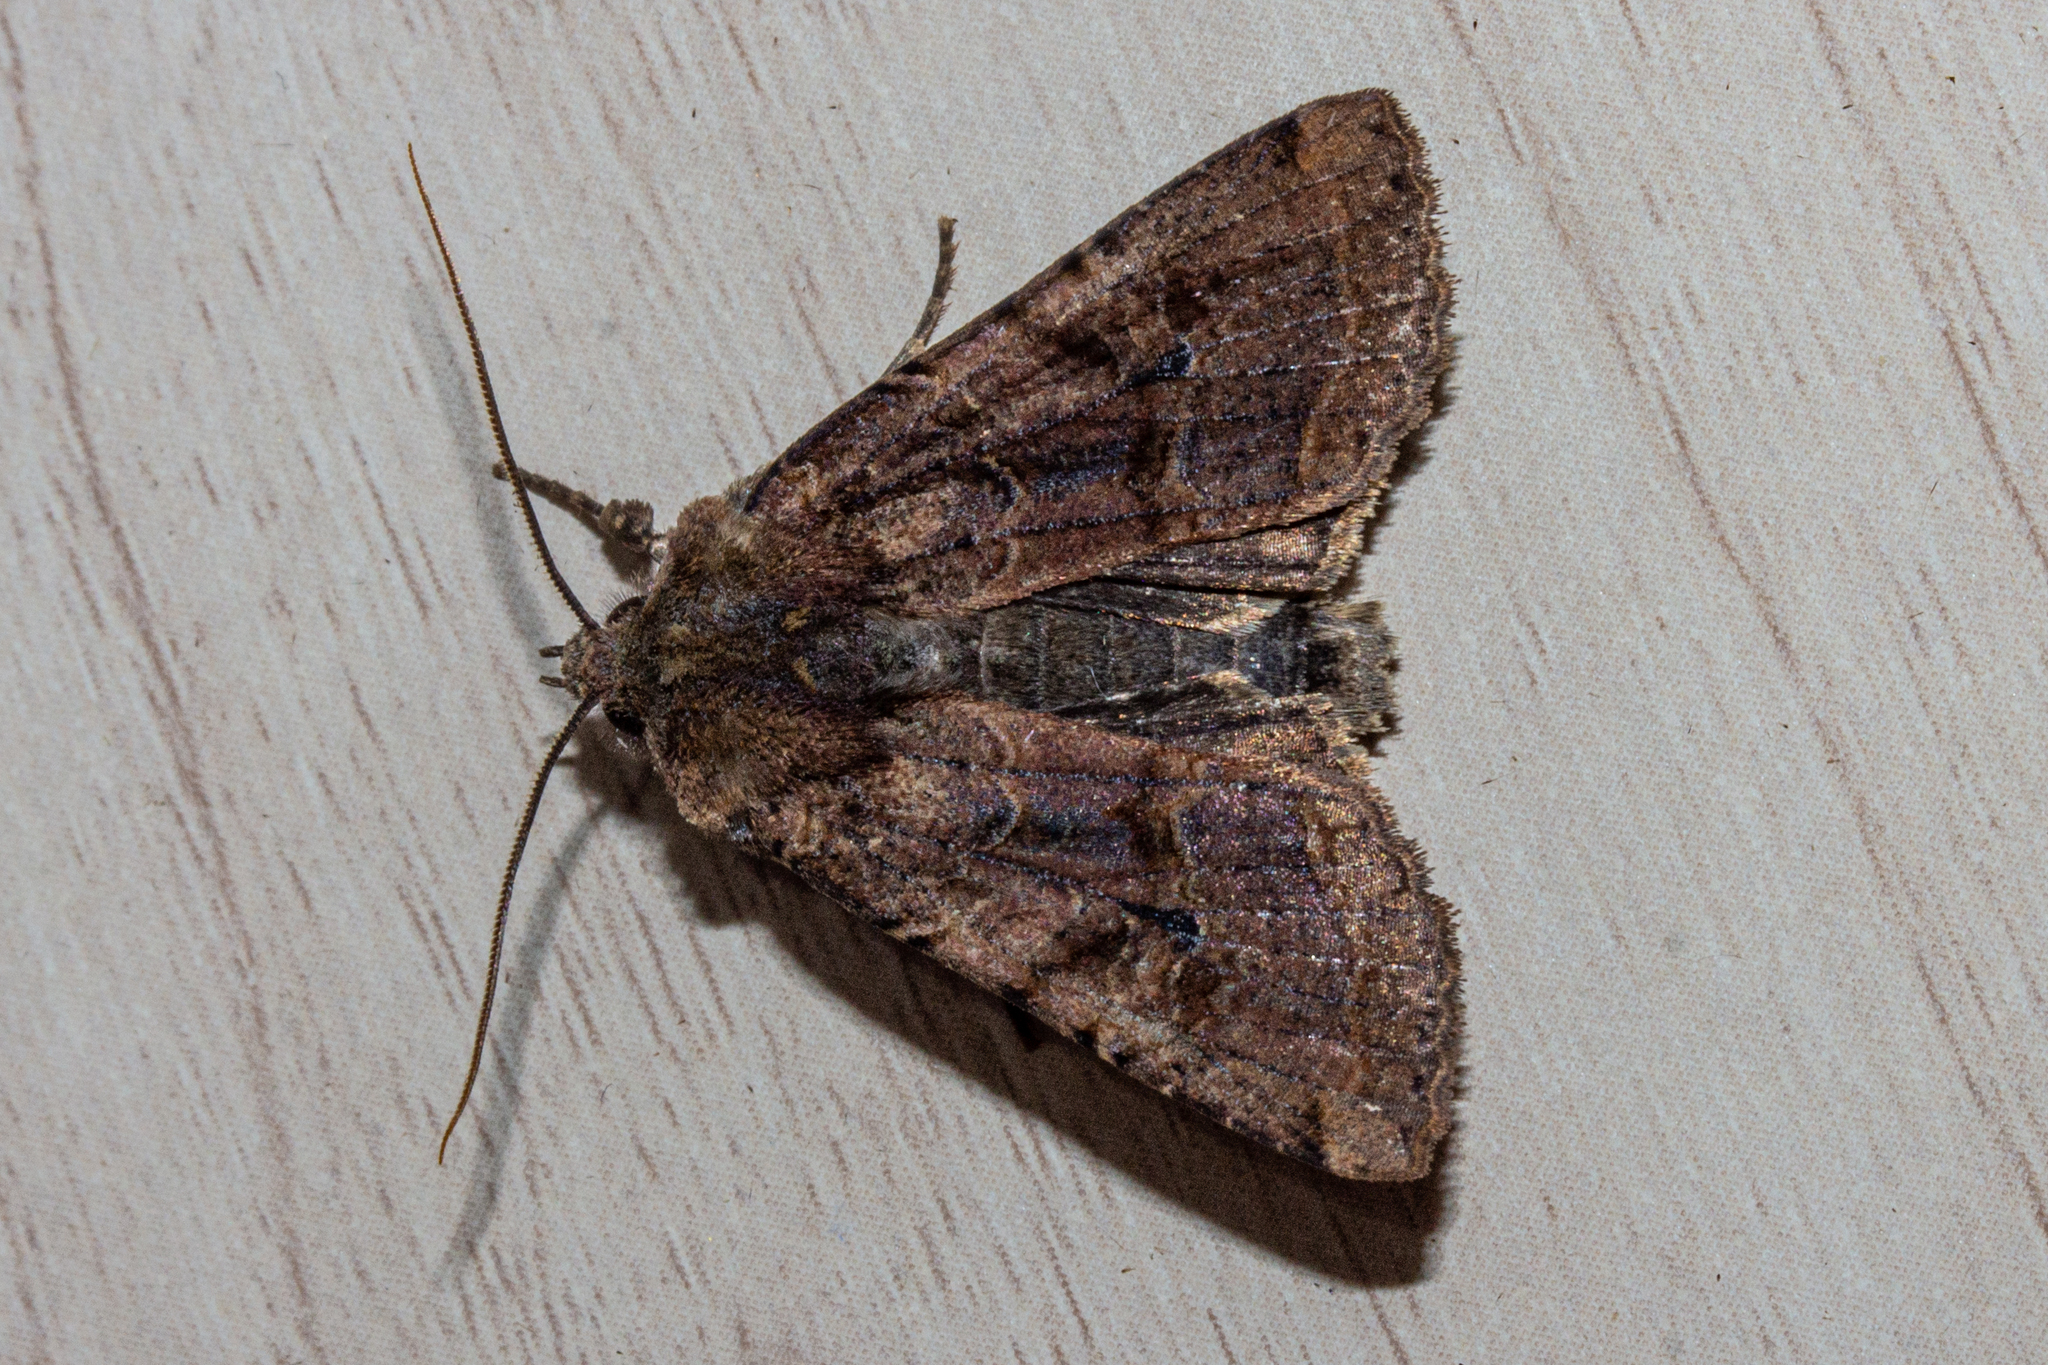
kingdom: Animalia
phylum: Arthropoda
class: Insecta
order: Lepidoptera
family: Noctuidae
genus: Meterana
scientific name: Meterana tartaraea
